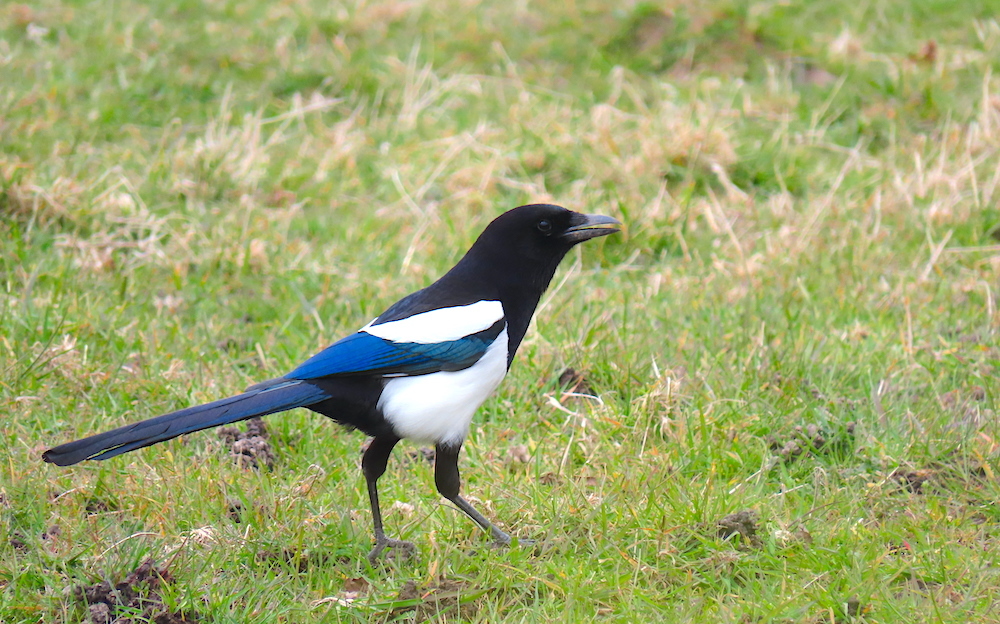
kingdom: Animalia
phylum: Chordata
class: Aves
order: Passeriformes
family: Corvidae
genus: Pica
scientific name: Pica pica
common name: Eurasian magpie
